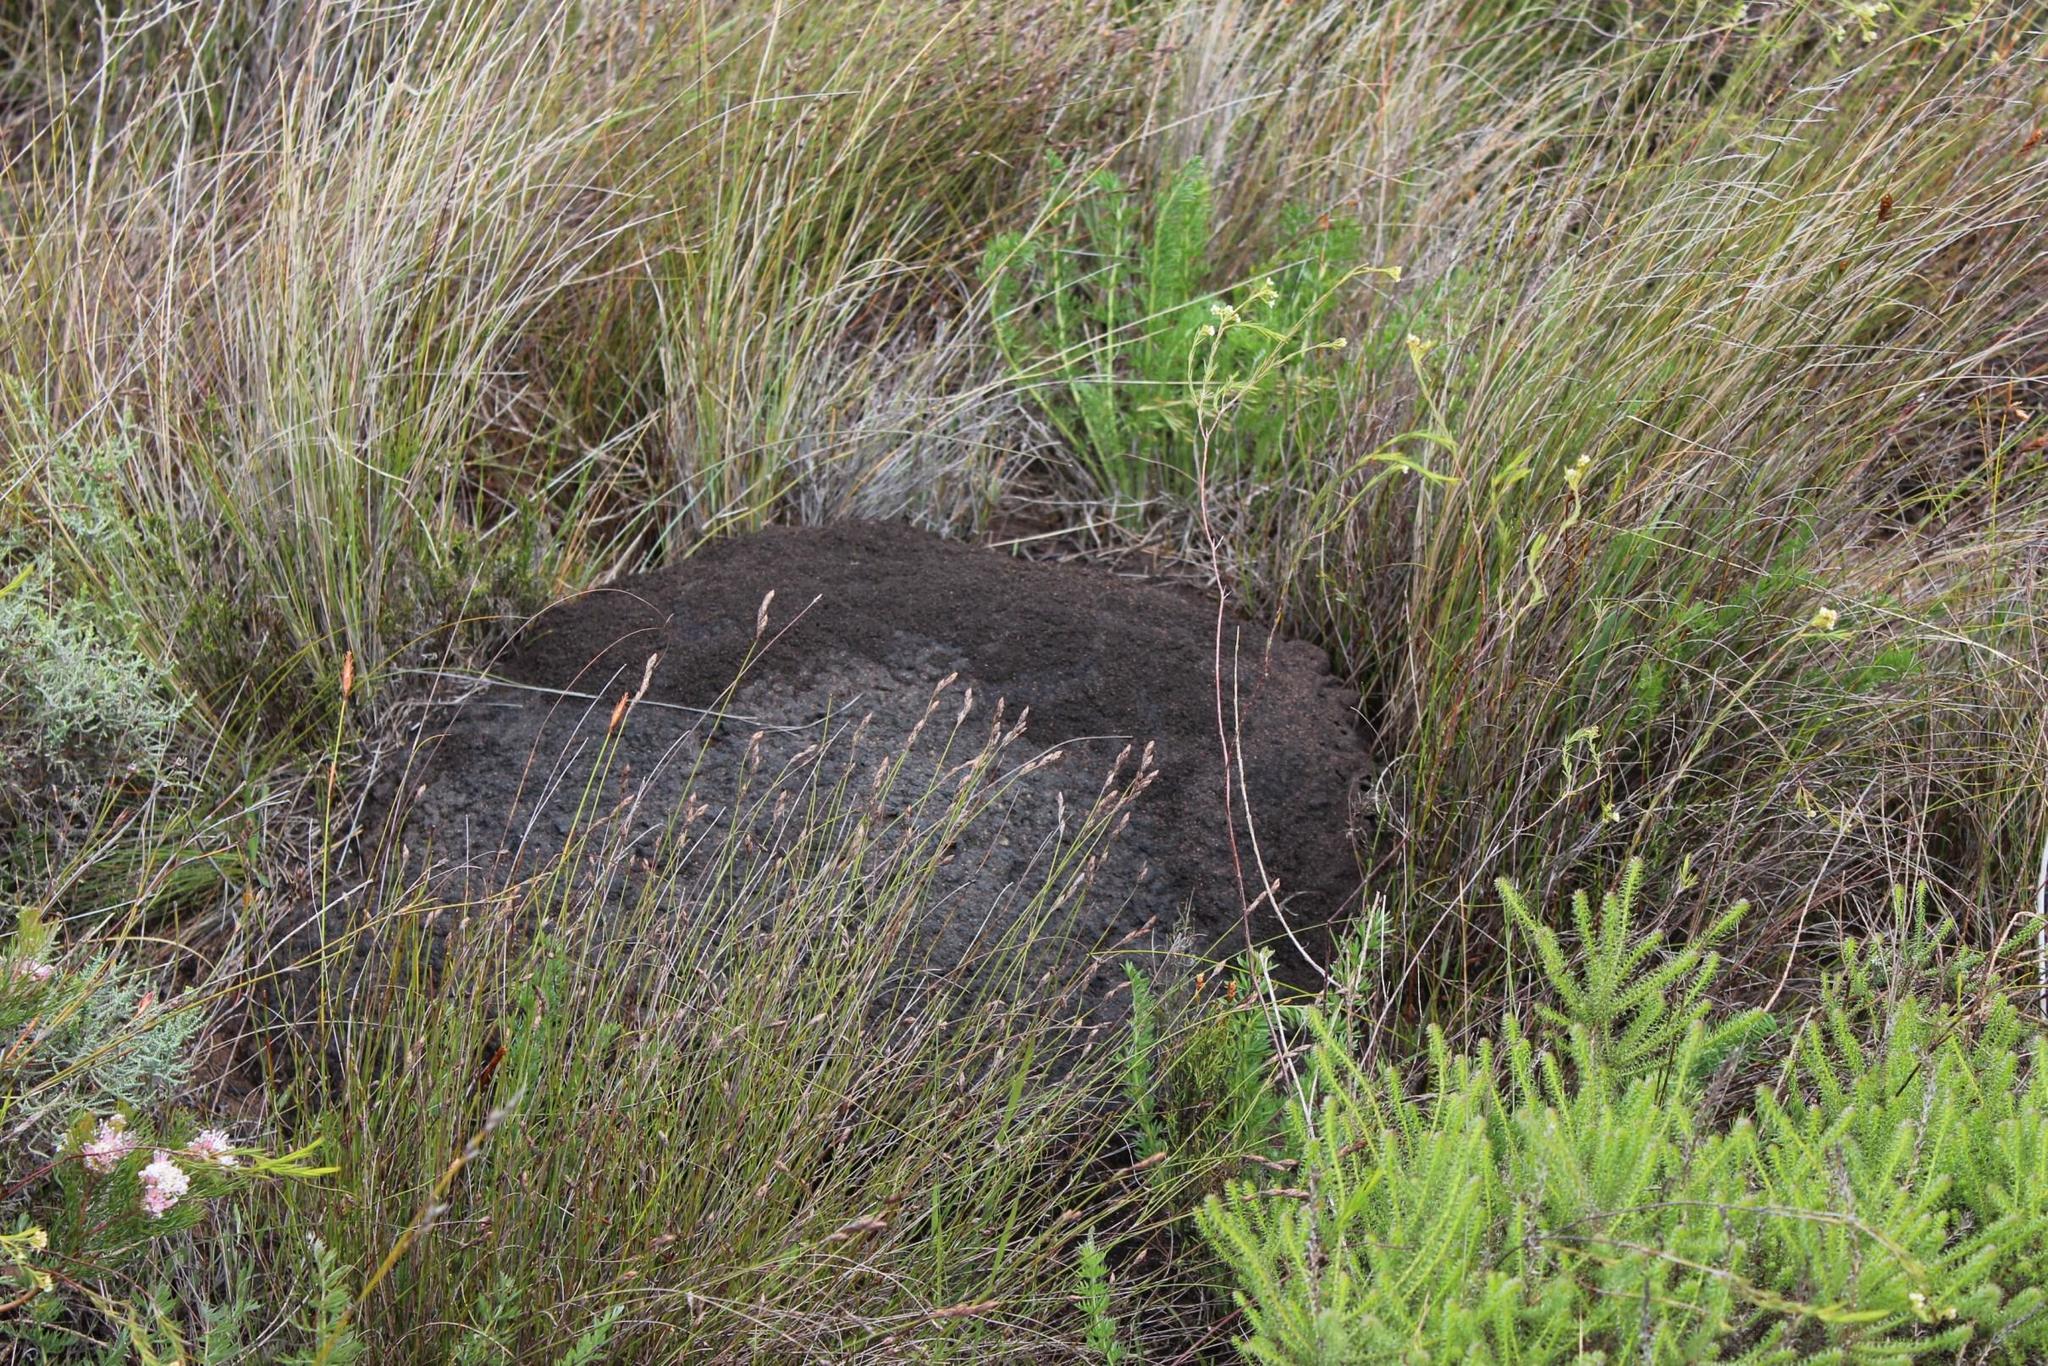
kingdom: Animalia
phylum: Arthropoda
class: Insecta
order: Blattodea
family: Termitidae
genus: Amitermes
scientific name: Amitermes hastatus
